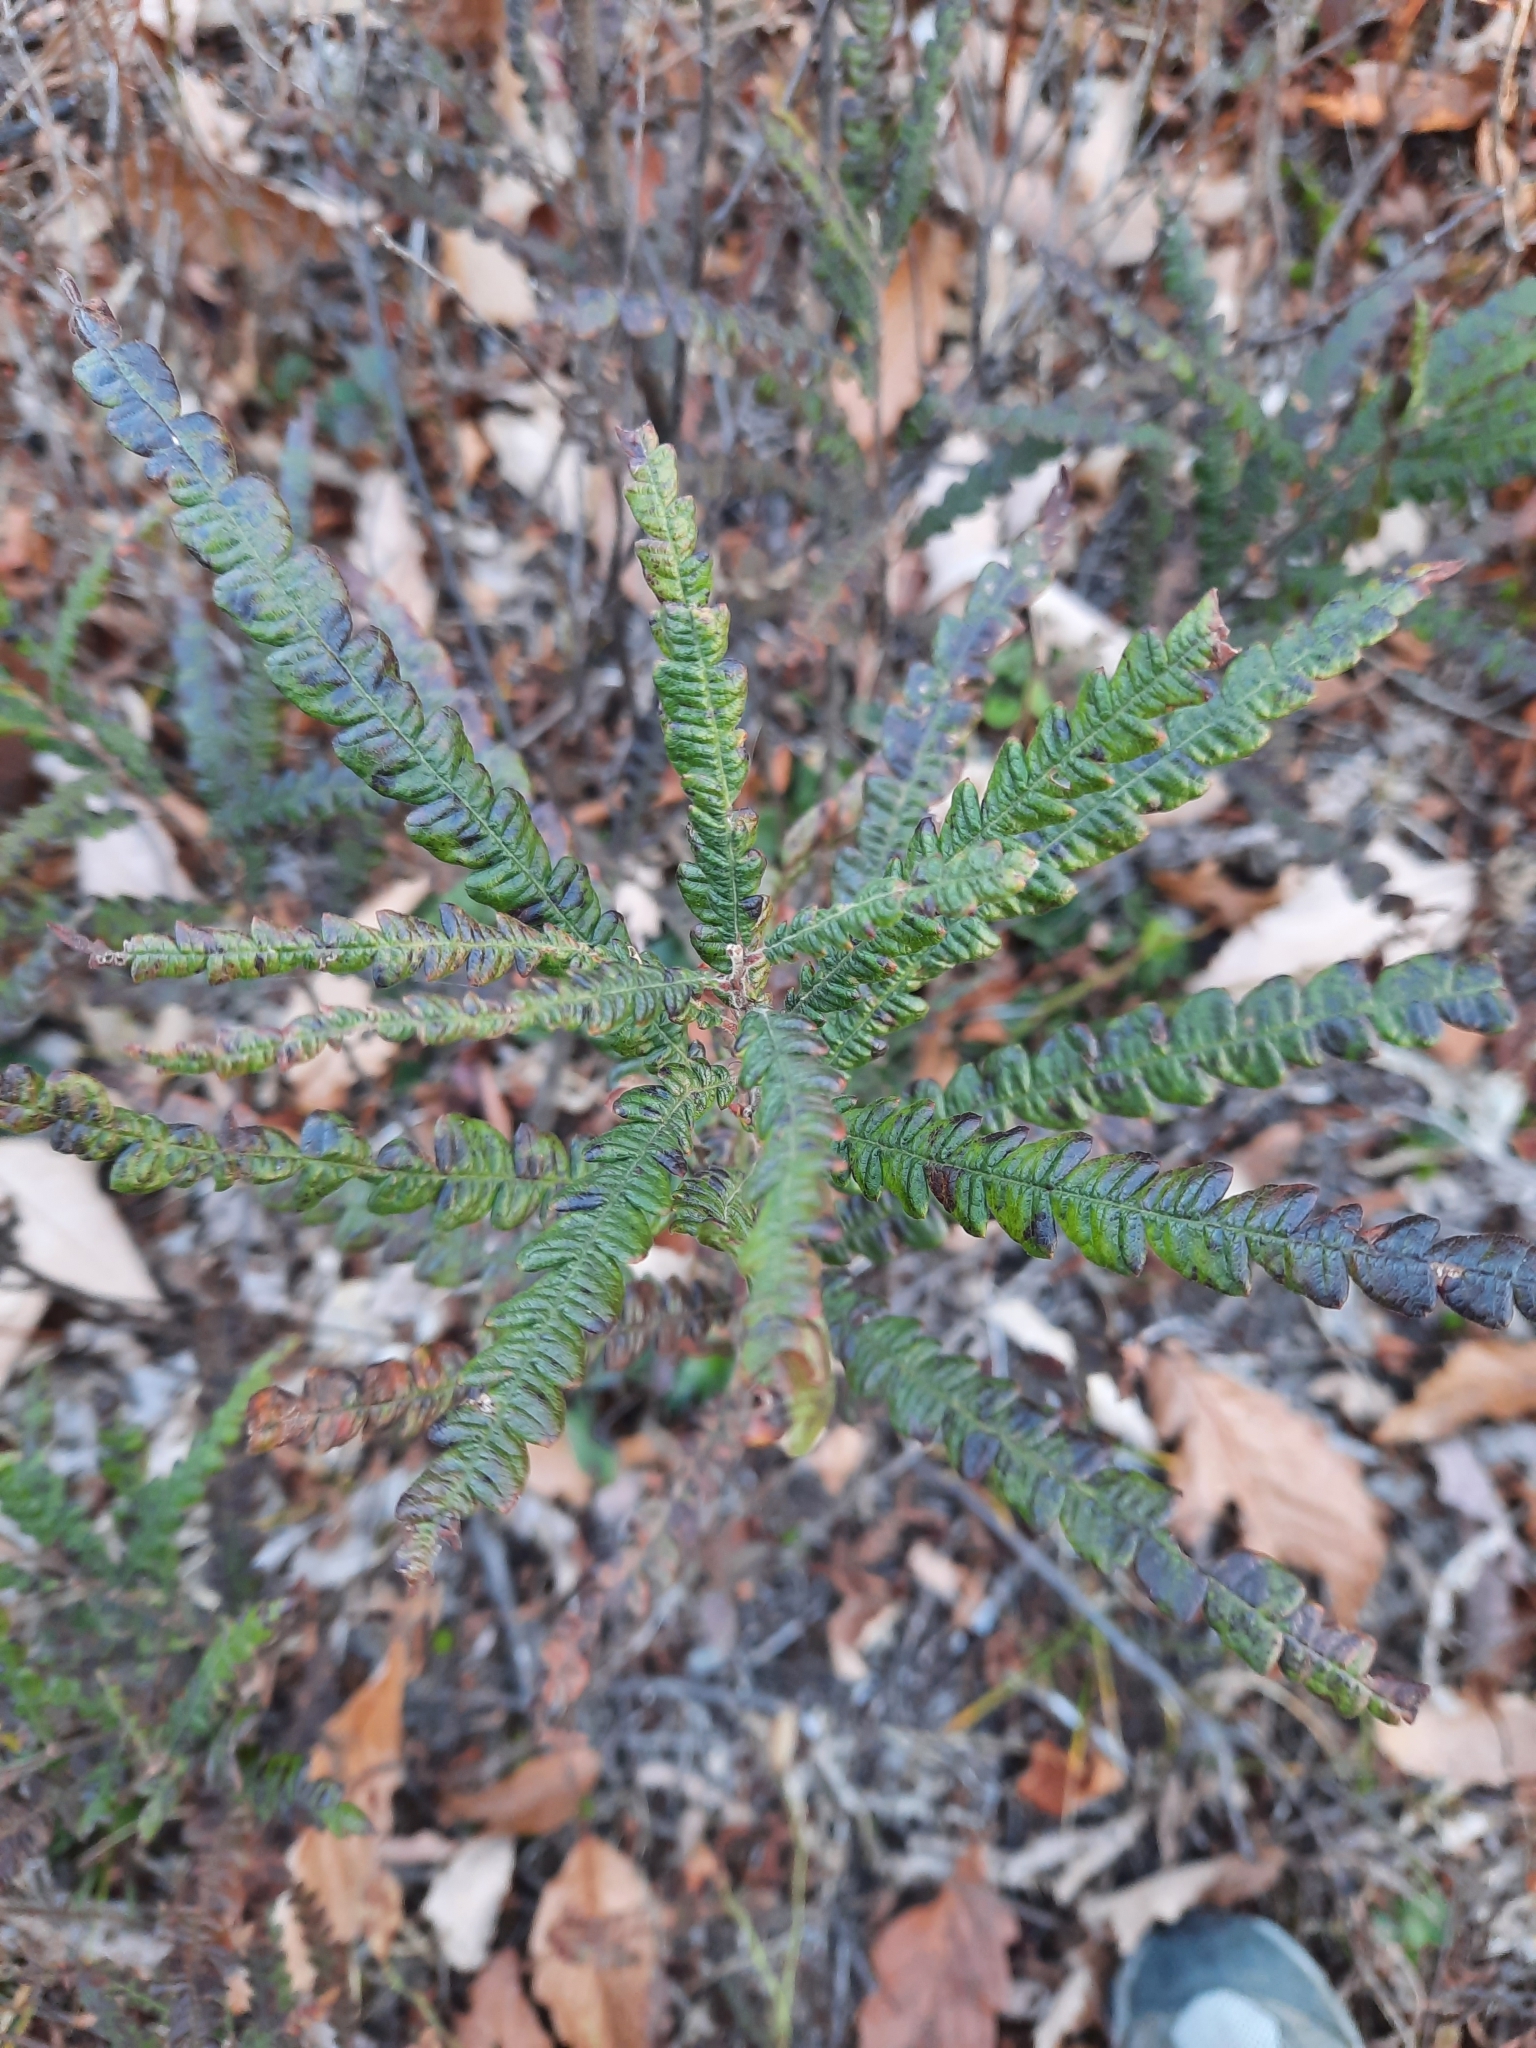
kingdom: Plantae
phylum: Tracheophyta
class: Magnoliopsida
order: Fagales
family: Myricaceae
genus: Comptonia
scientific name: Comptonia peregrina
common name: Sweet-fern
